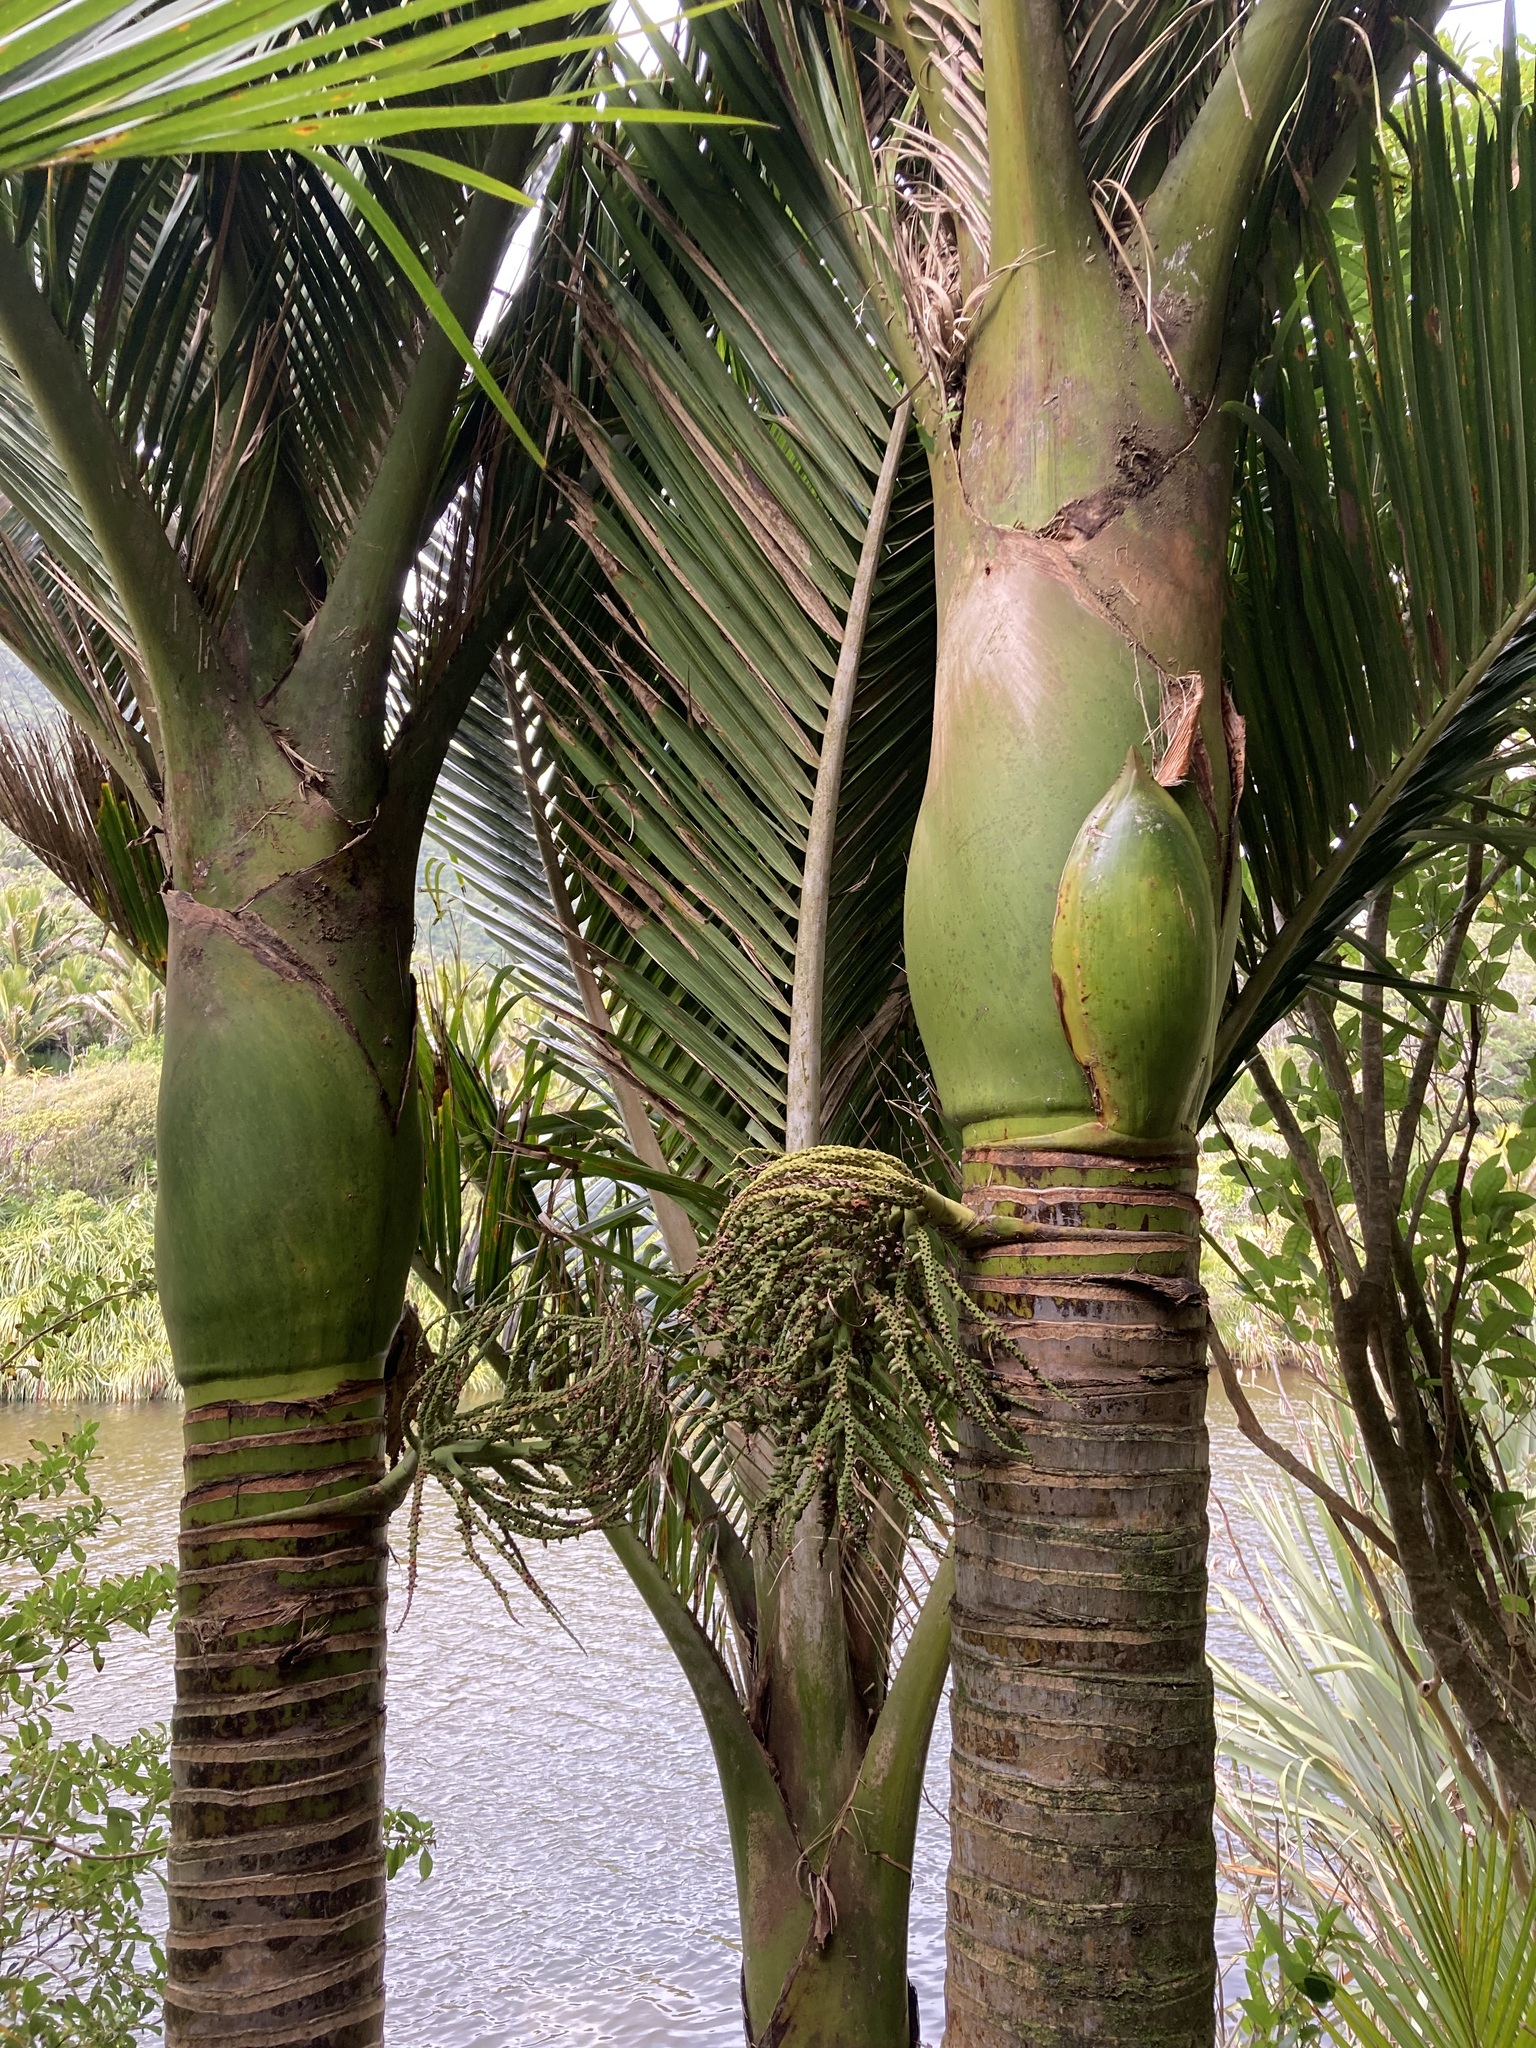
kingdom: Plantae
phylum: Tracheophyta
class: Liliopsida
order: Arecales
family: Arecaceae
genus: Rhopalostylis
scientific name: Rhopalostylis sapida
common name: Feather-duster palm
